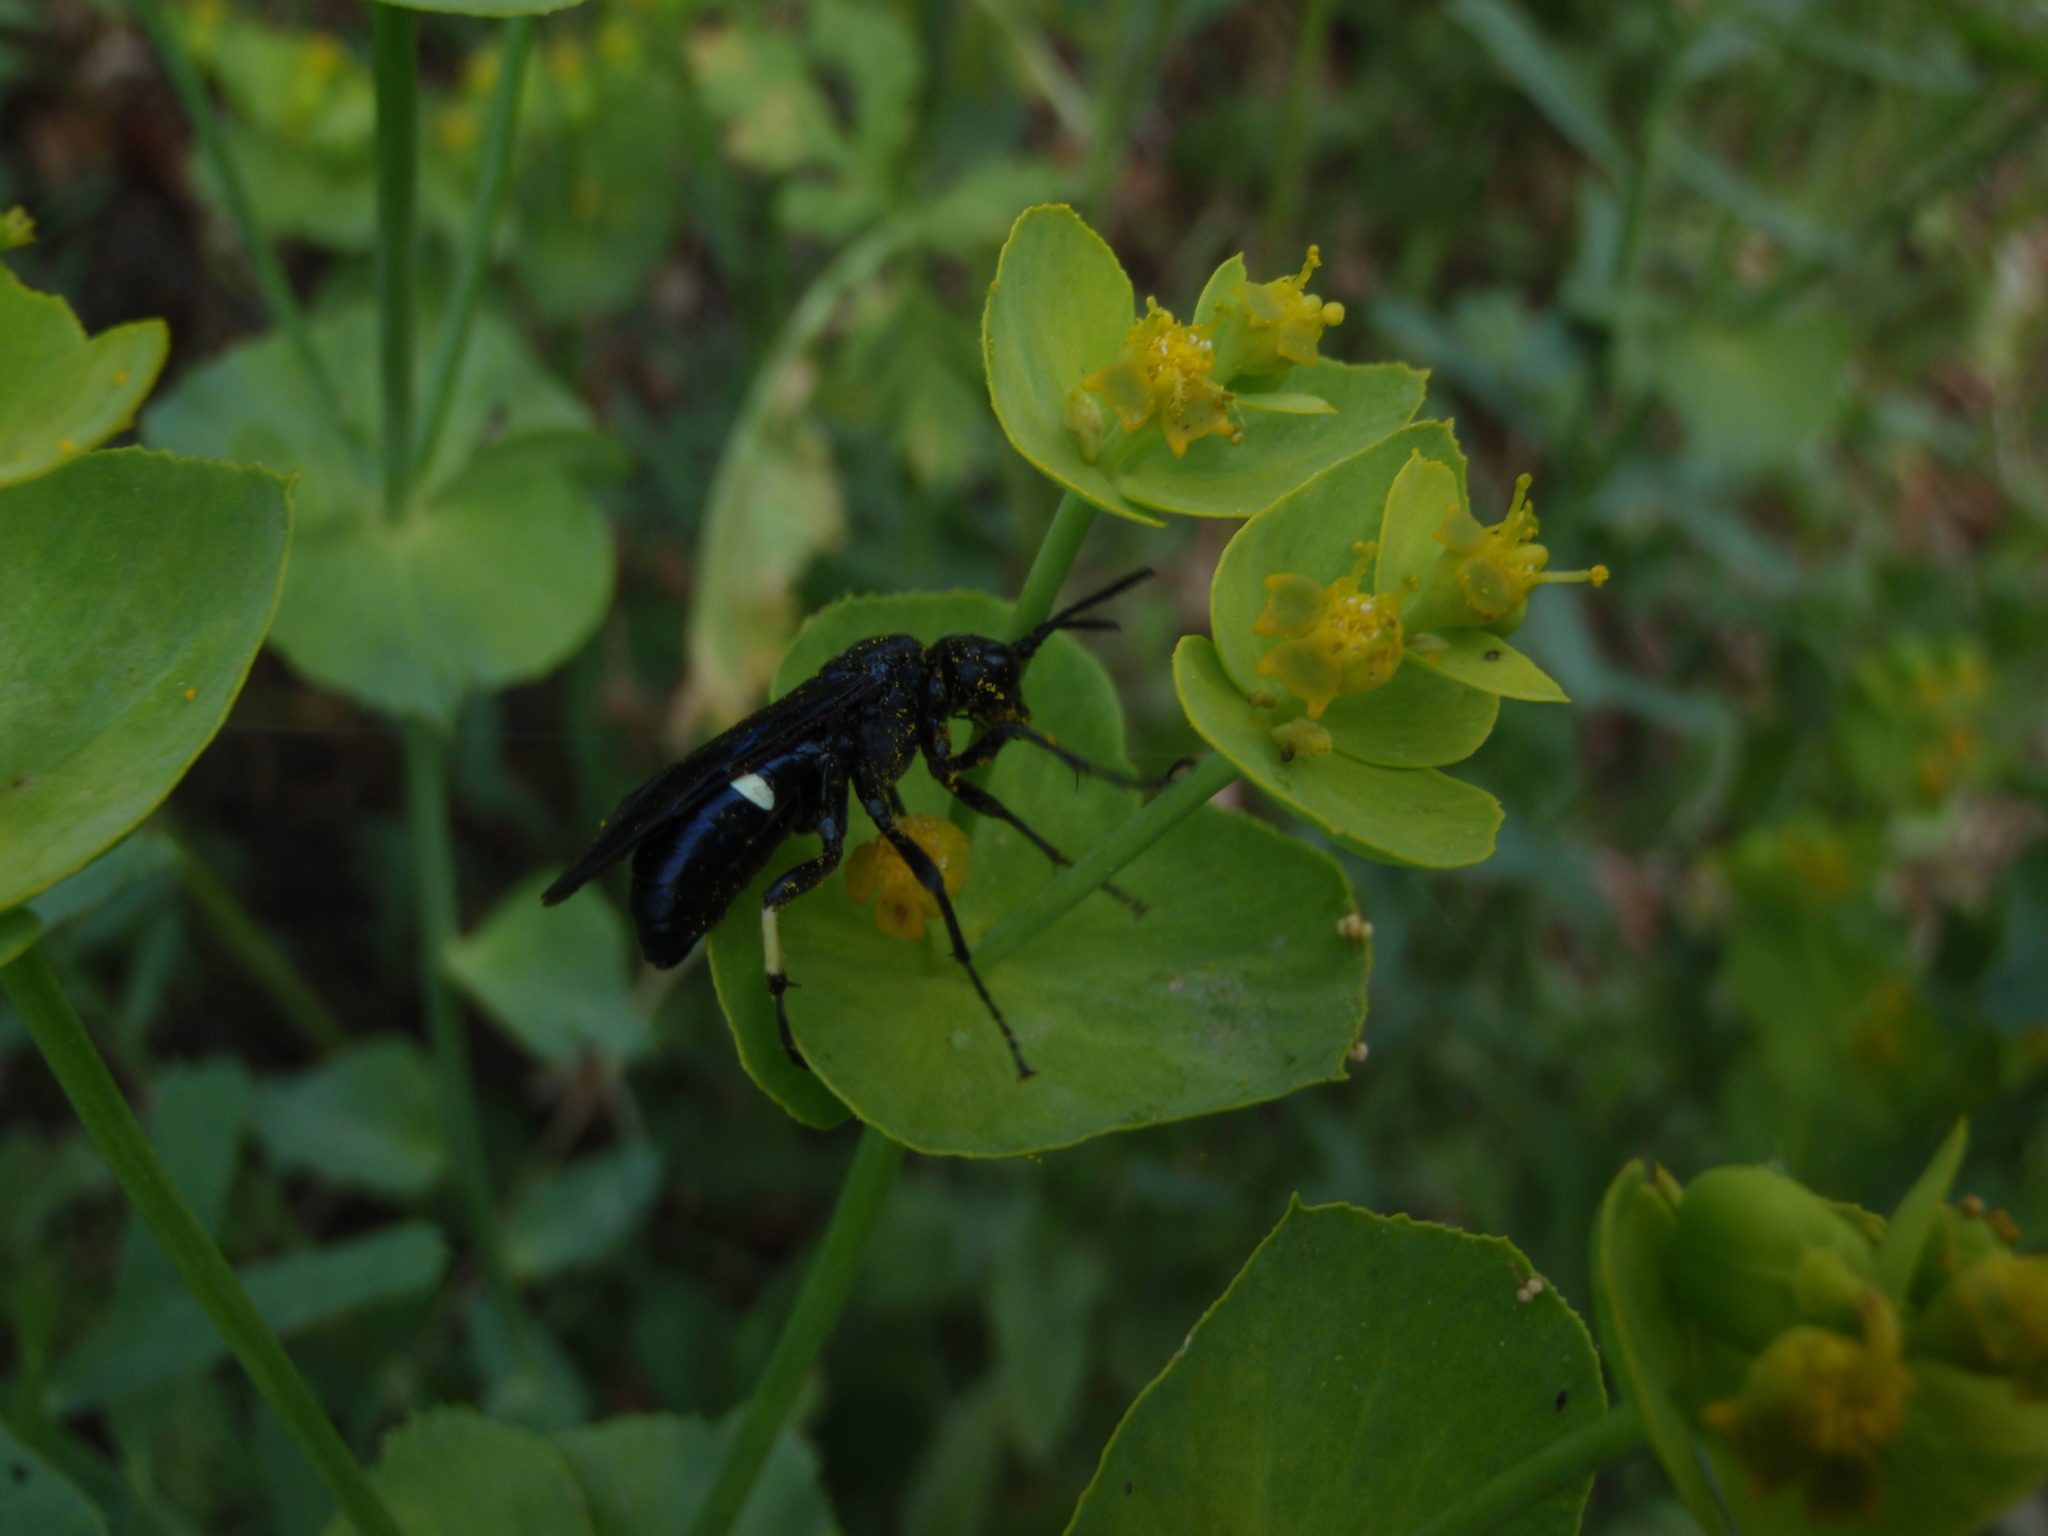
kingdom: Animalia
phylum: Arthropoda
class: Insecta
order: Hymenoptera
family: Tenthredinidae
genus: Tenthredo
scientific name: Tenthredo bifasciata
